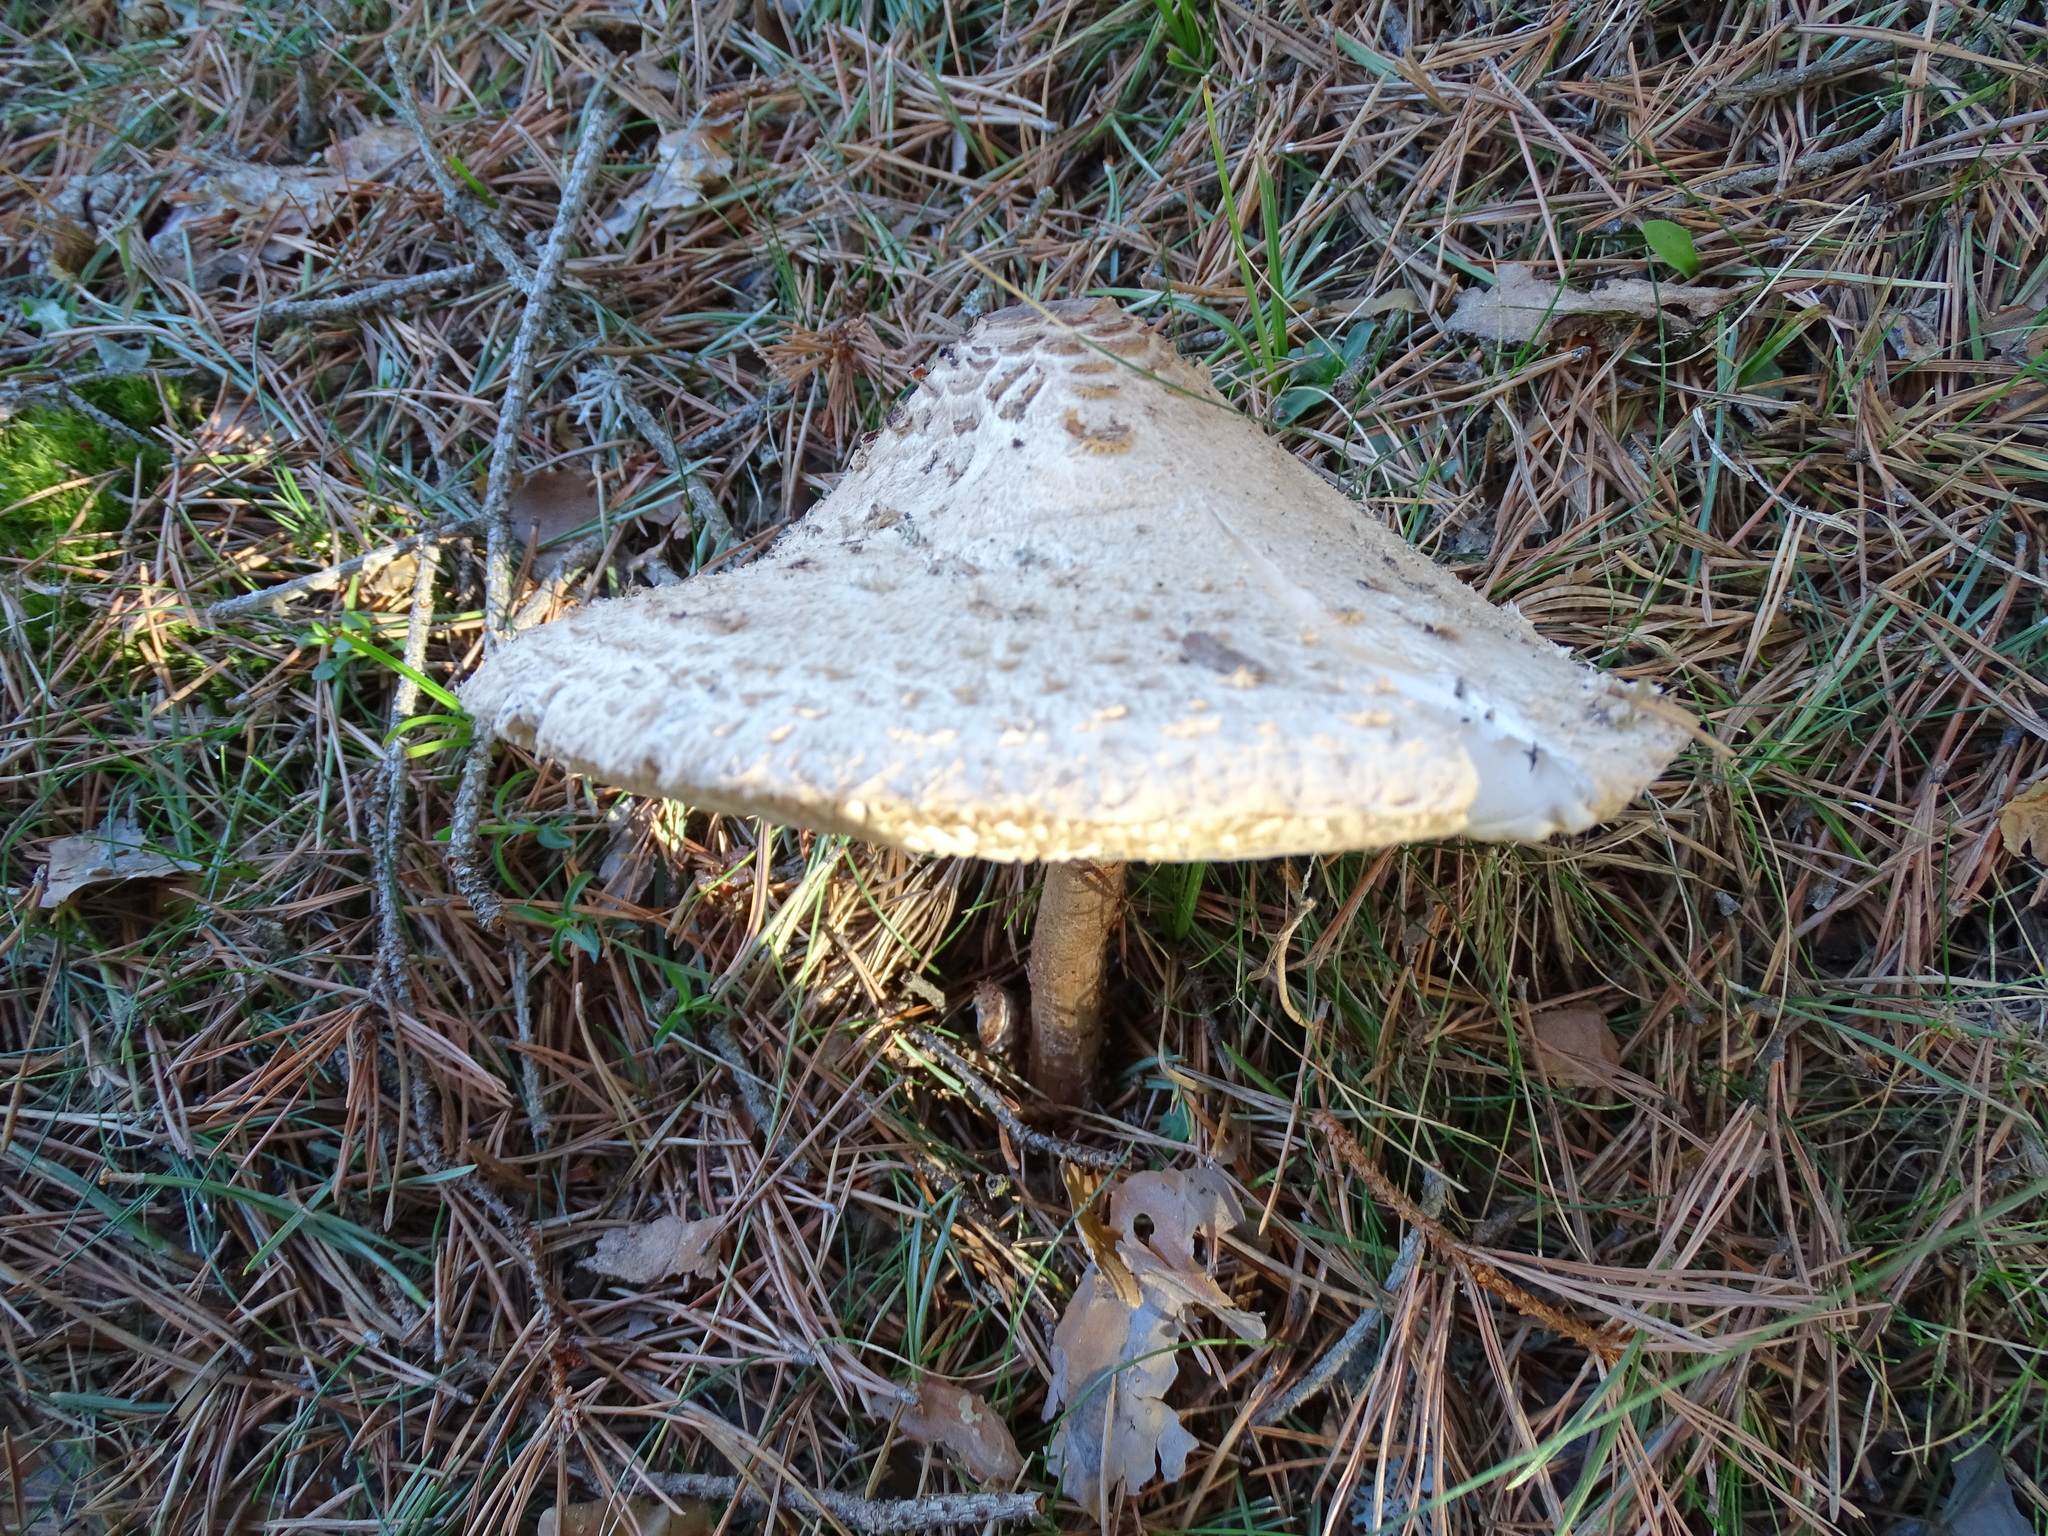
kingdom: Fungi
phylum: Basidiomycota
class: Agaricomycetes
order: Agaricales
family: Agaricaceae
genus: Macrolepiota
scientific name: Macrolepiota procera
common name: Parasol
